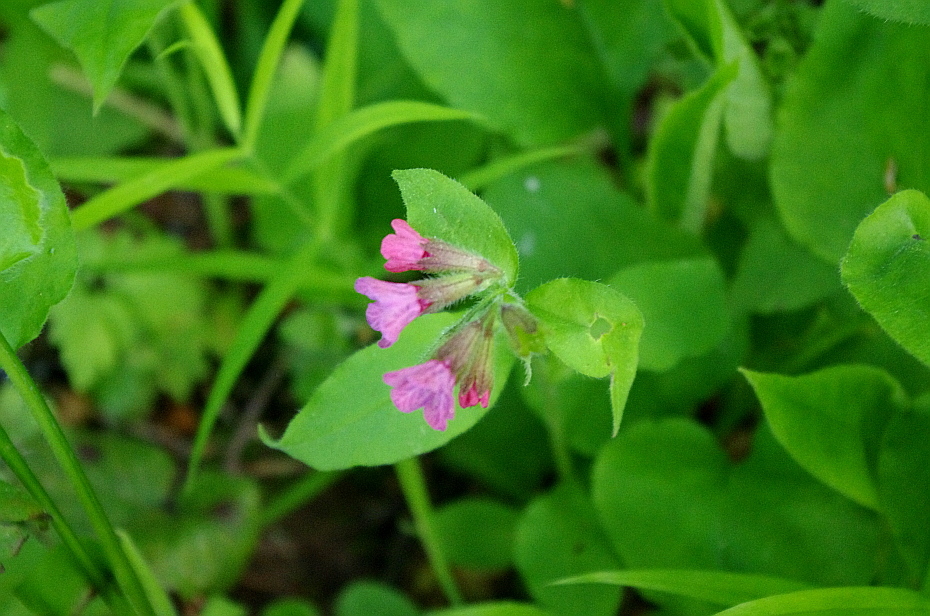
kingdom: Plantae
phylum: Tracheophyta
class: Magnoliopsida
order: Boraginales
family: Boraginaceae
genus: Pulmonaria
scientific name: Pulmonaria obscura
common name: Suffolk lungwort
